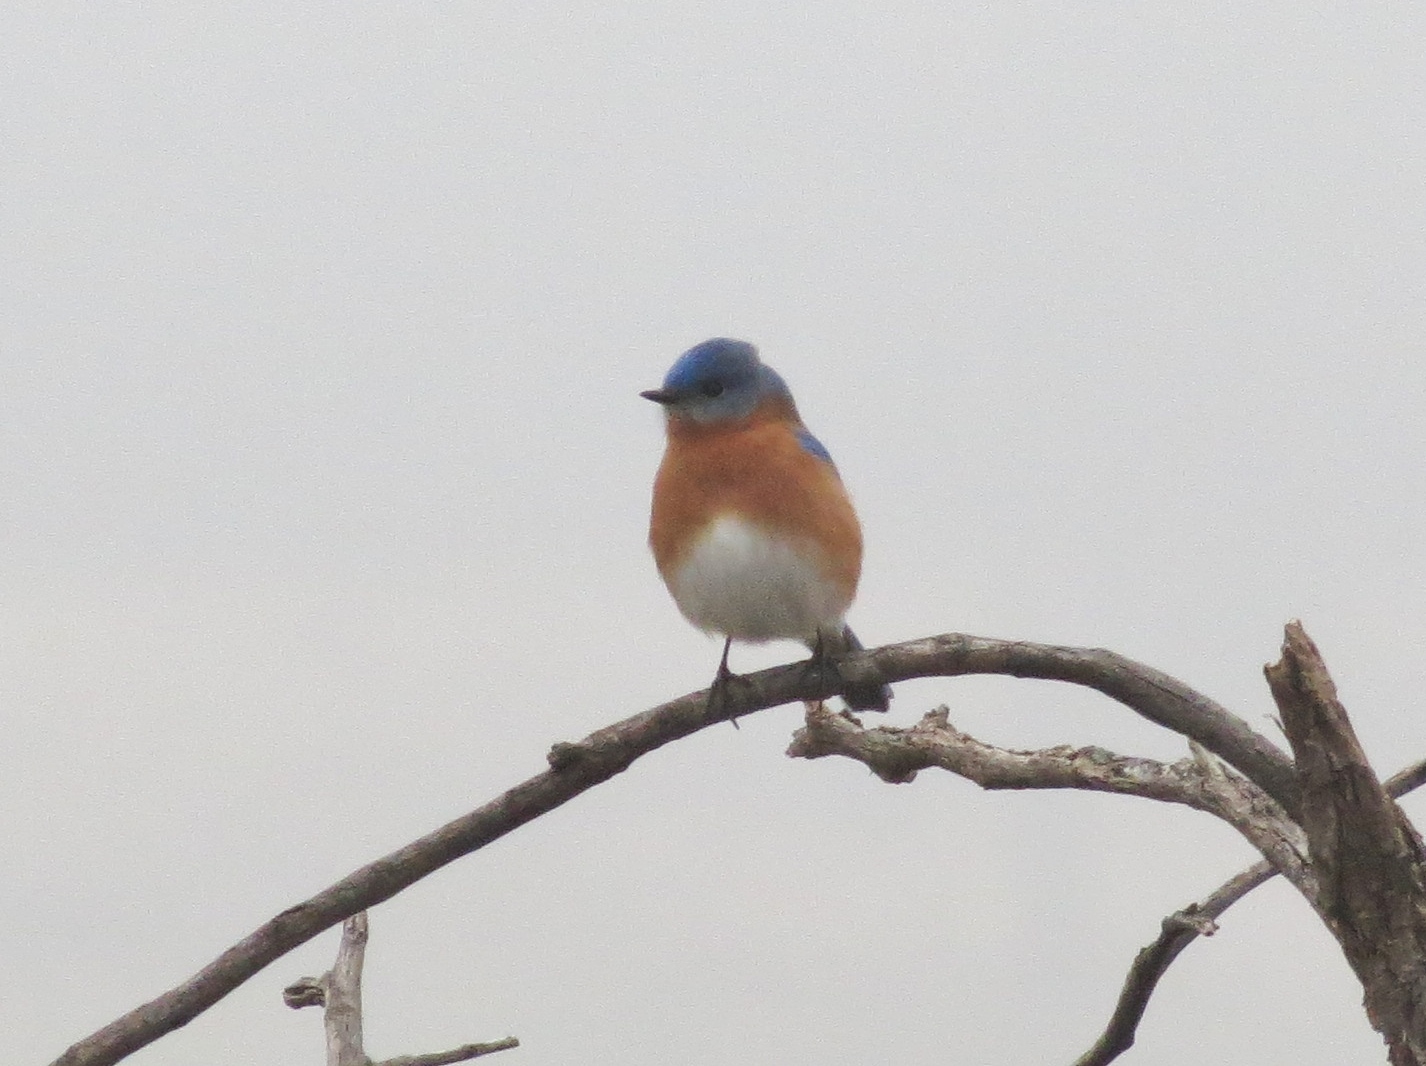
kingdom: Animalia
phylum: Chordata
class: Aves
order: Passeriformes
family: Turdidae
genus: Sialia
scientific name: Sialia sialis
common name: Eastern bluebird
